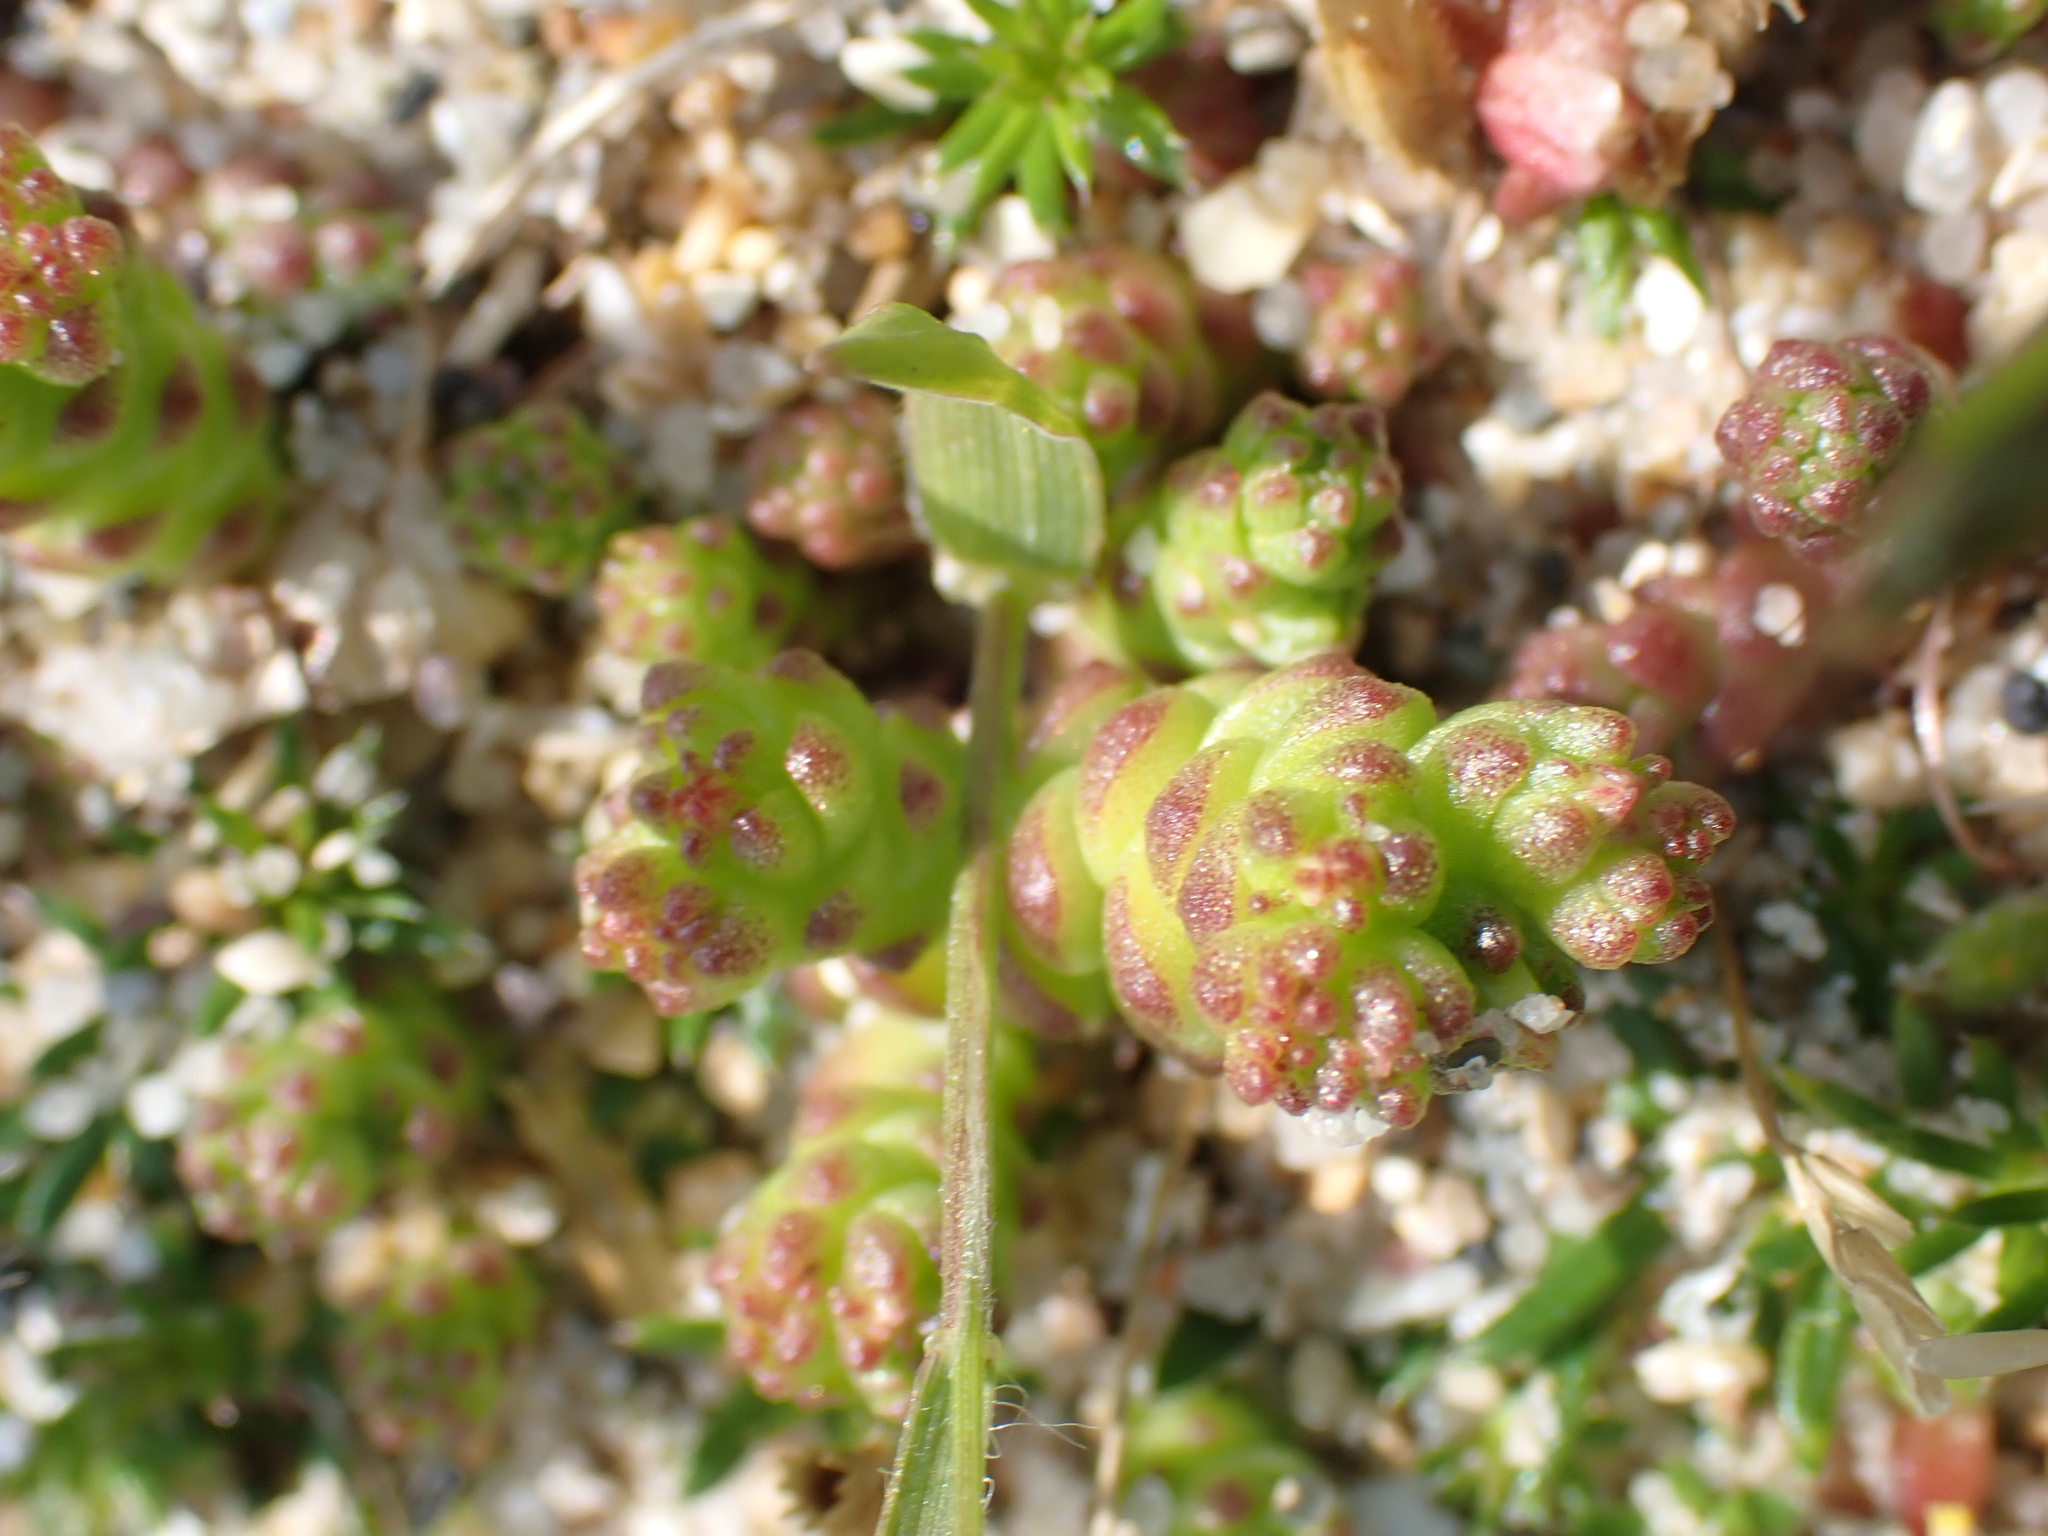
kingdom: Plantae
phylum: Tracheophyta
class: Magnoliopsida
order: Saxifragales
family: Crassulaceae
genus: Sedum
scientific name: Sedum acre
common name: Biting stonecrop
